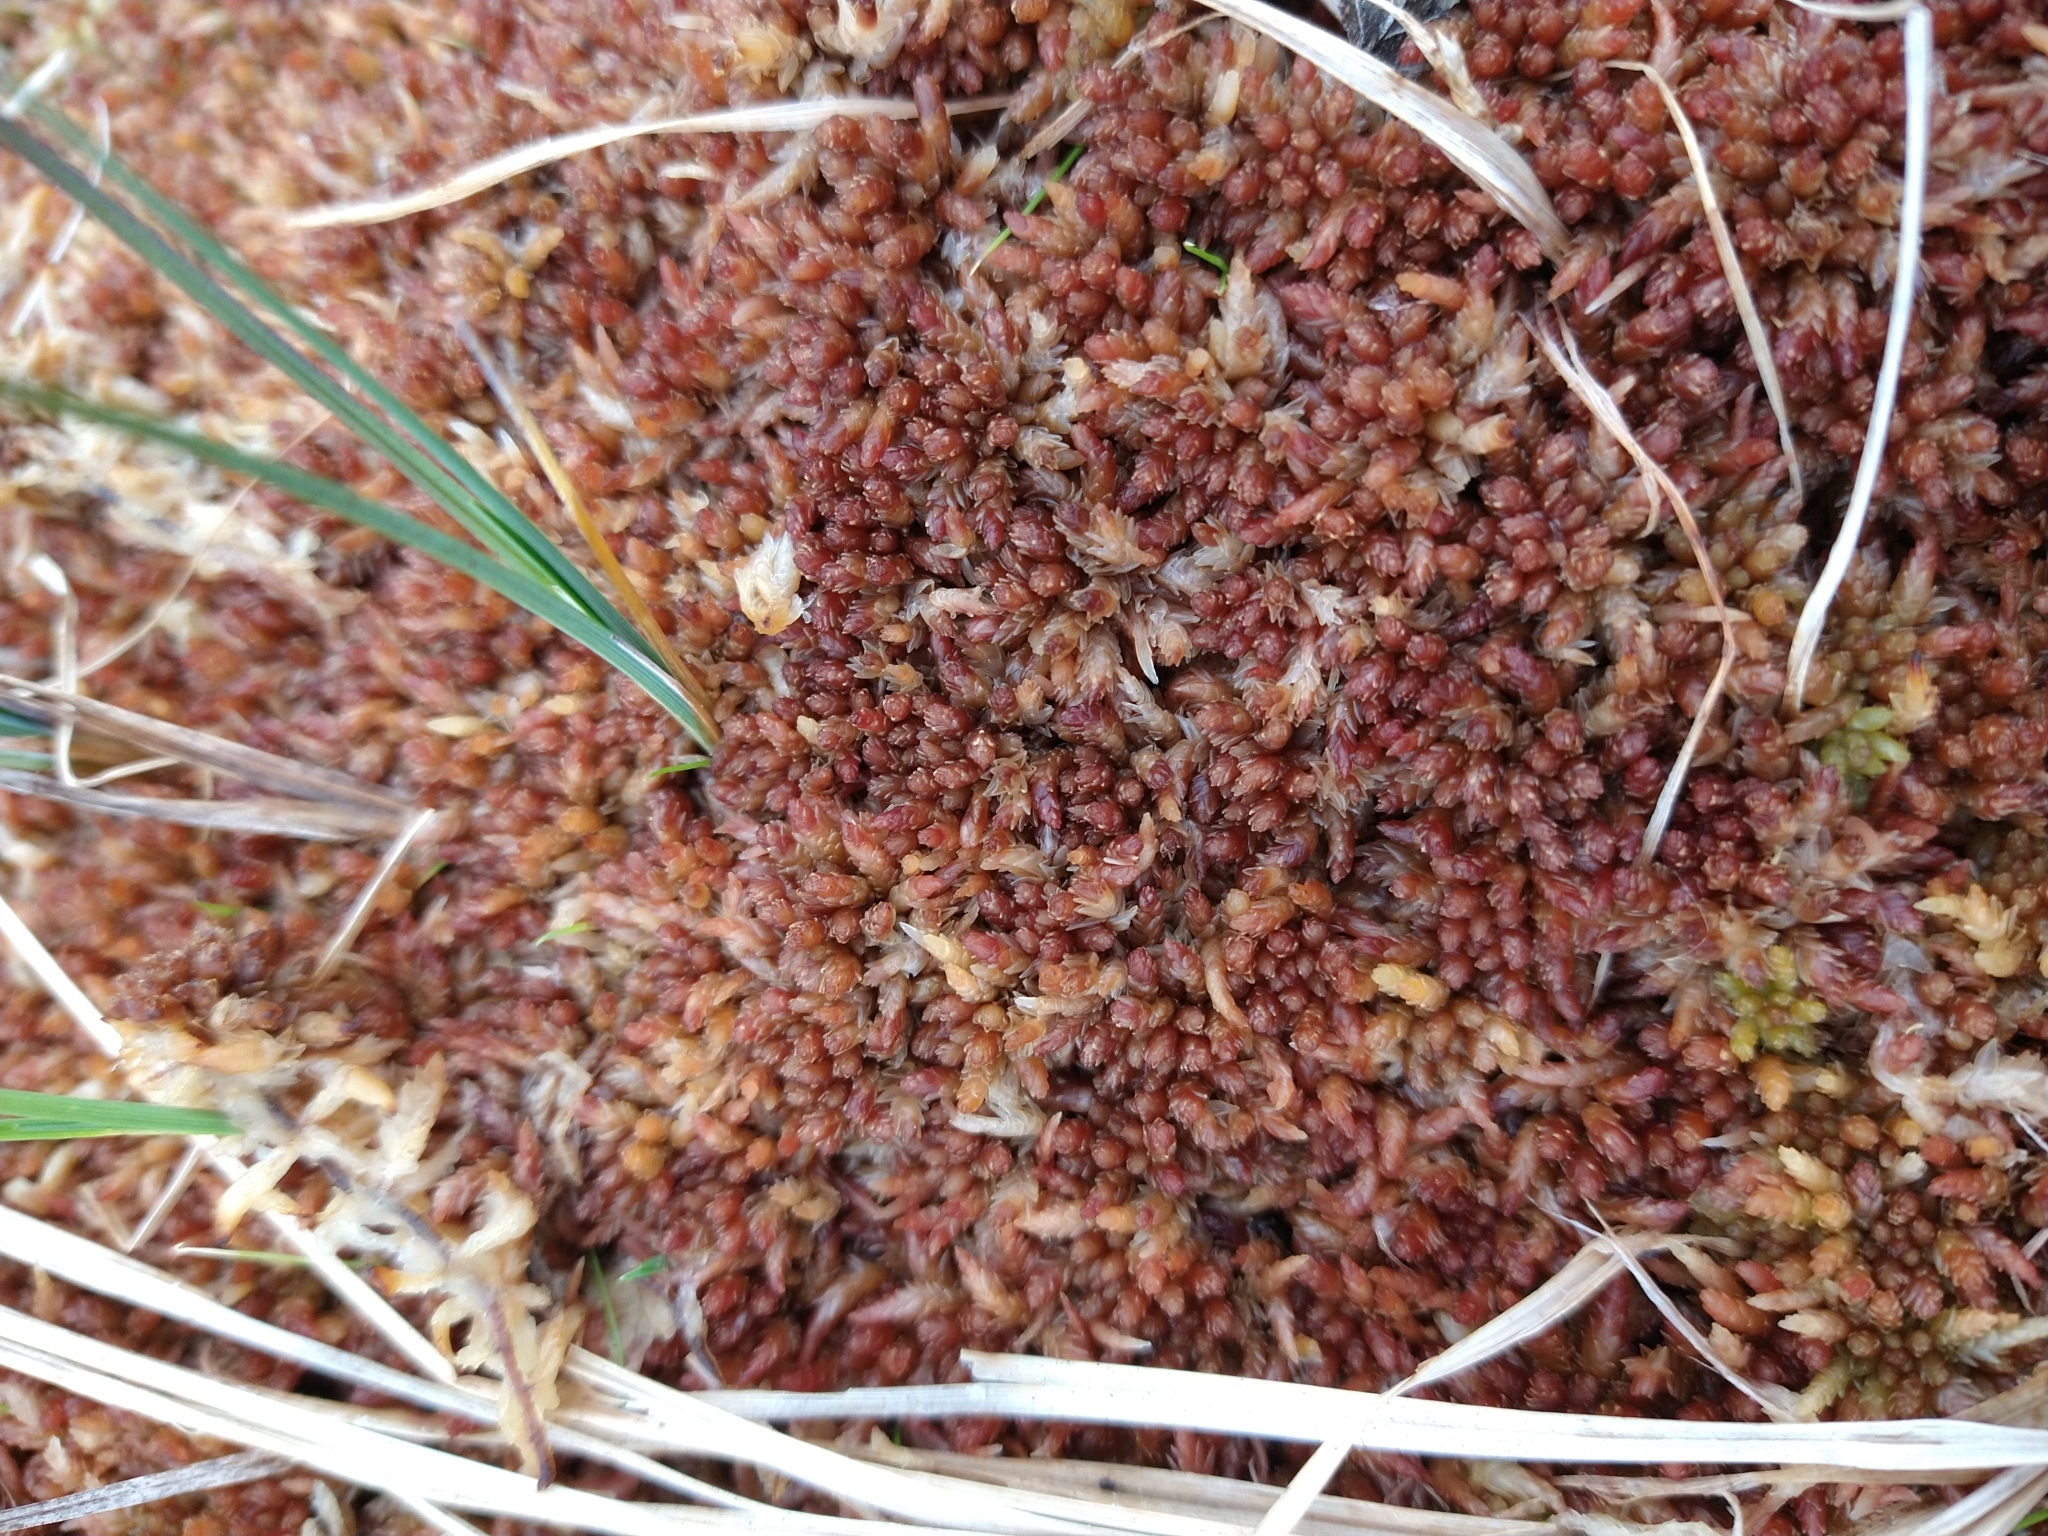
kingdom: Plantae
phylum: Bryophyta
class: Sphagnopsida
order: Sphagnales
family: Sphagnaceae
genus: Sphagnum
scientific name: Sphagnum magellanicum
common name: Magellan's peat moss
